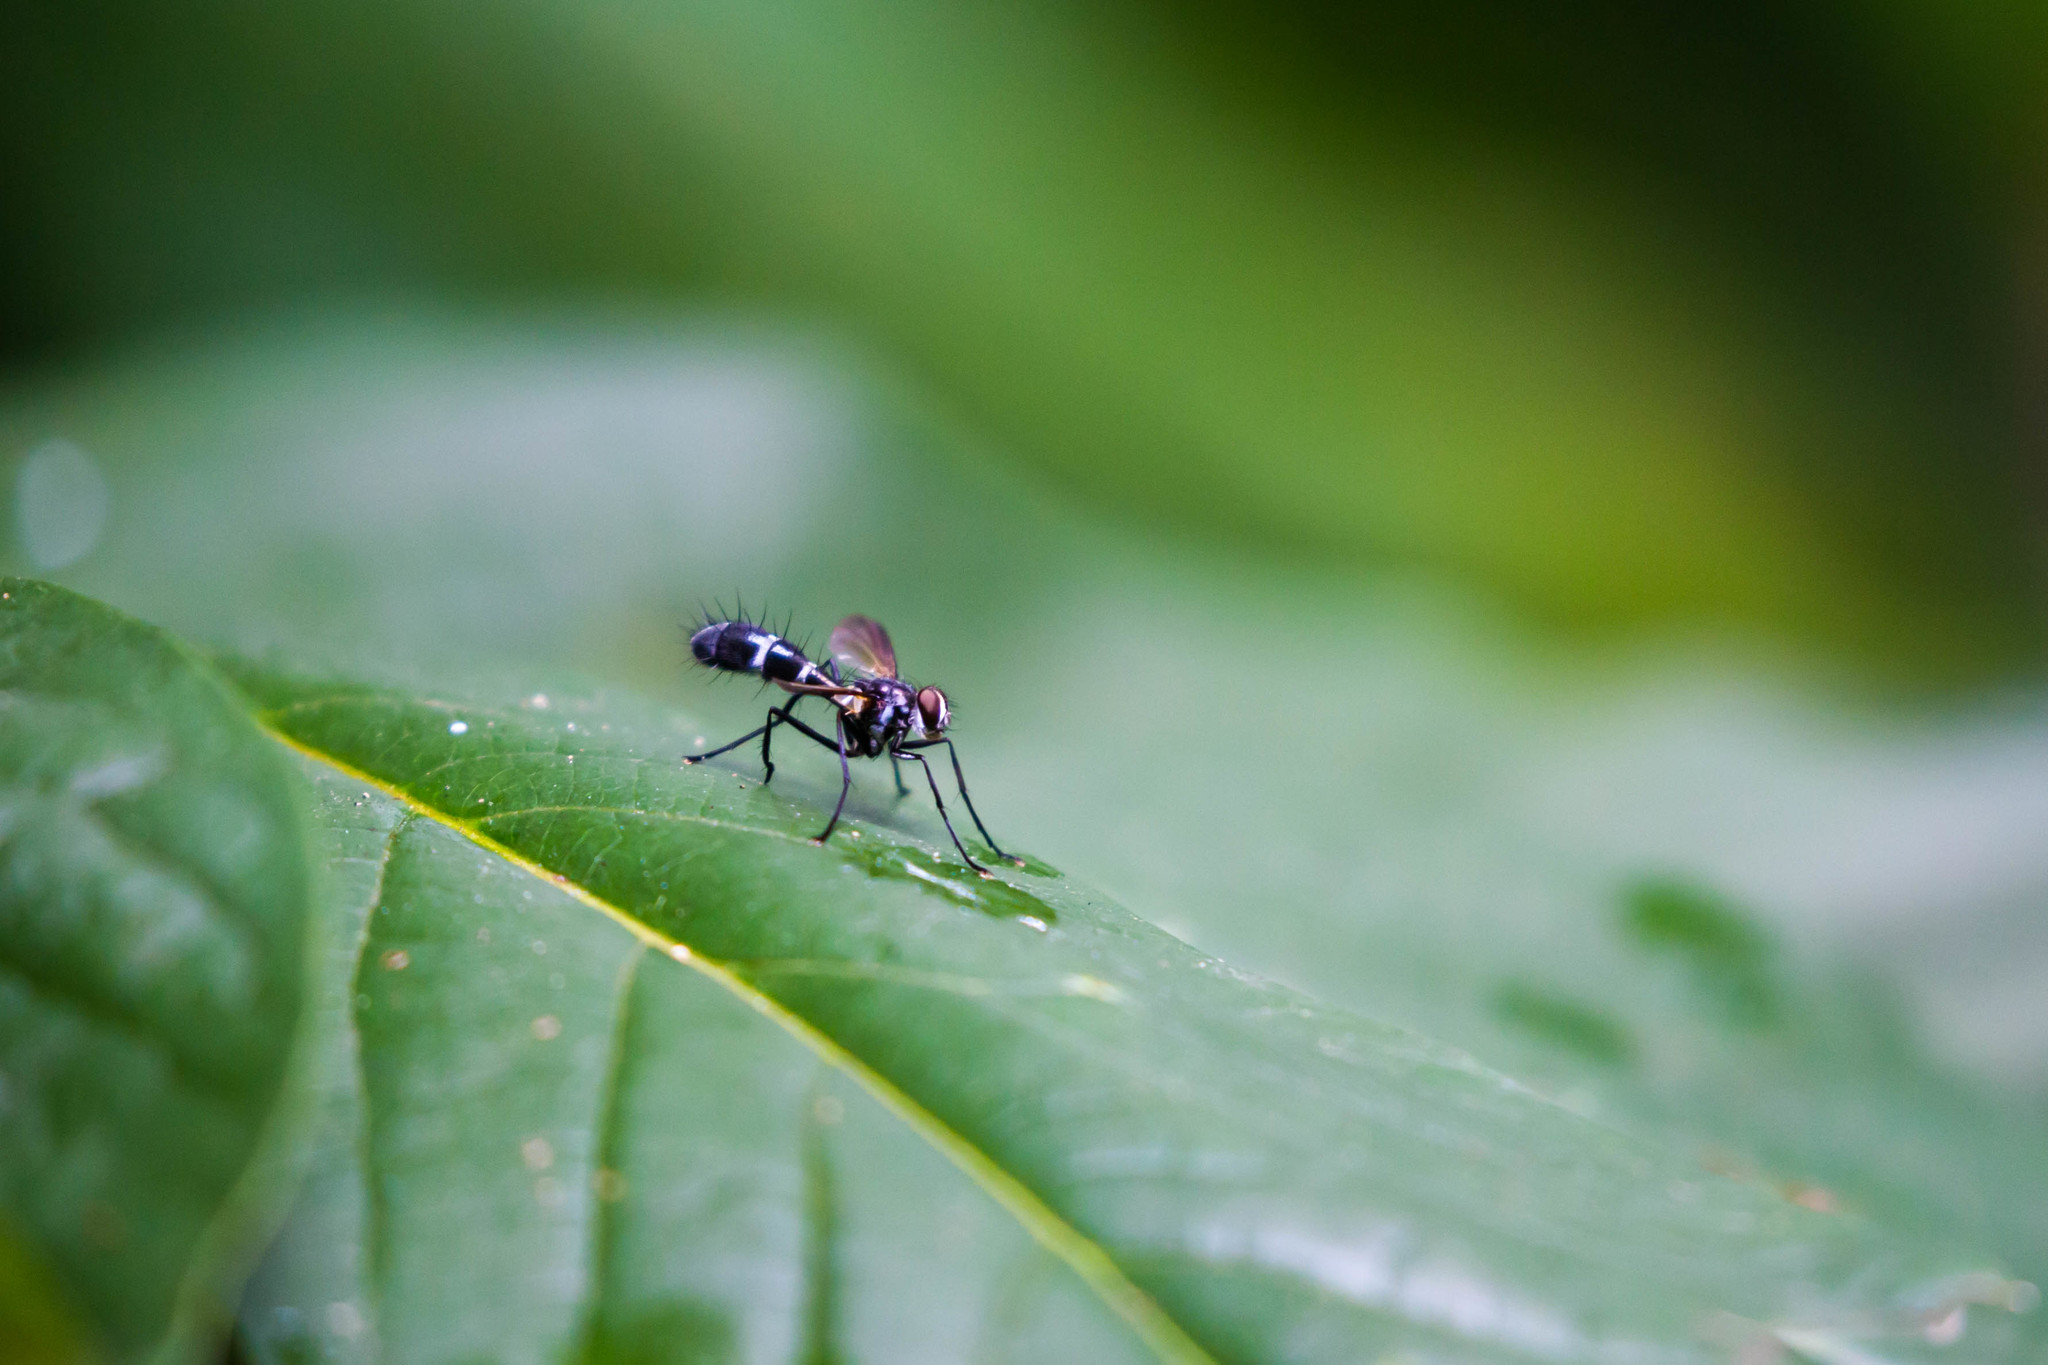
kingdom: Animalia
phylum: Arthropoda
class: Insecta
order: Diptera
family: Tachinidae
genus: Cordyligaster
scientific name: Cordyligaster septentrionalis
